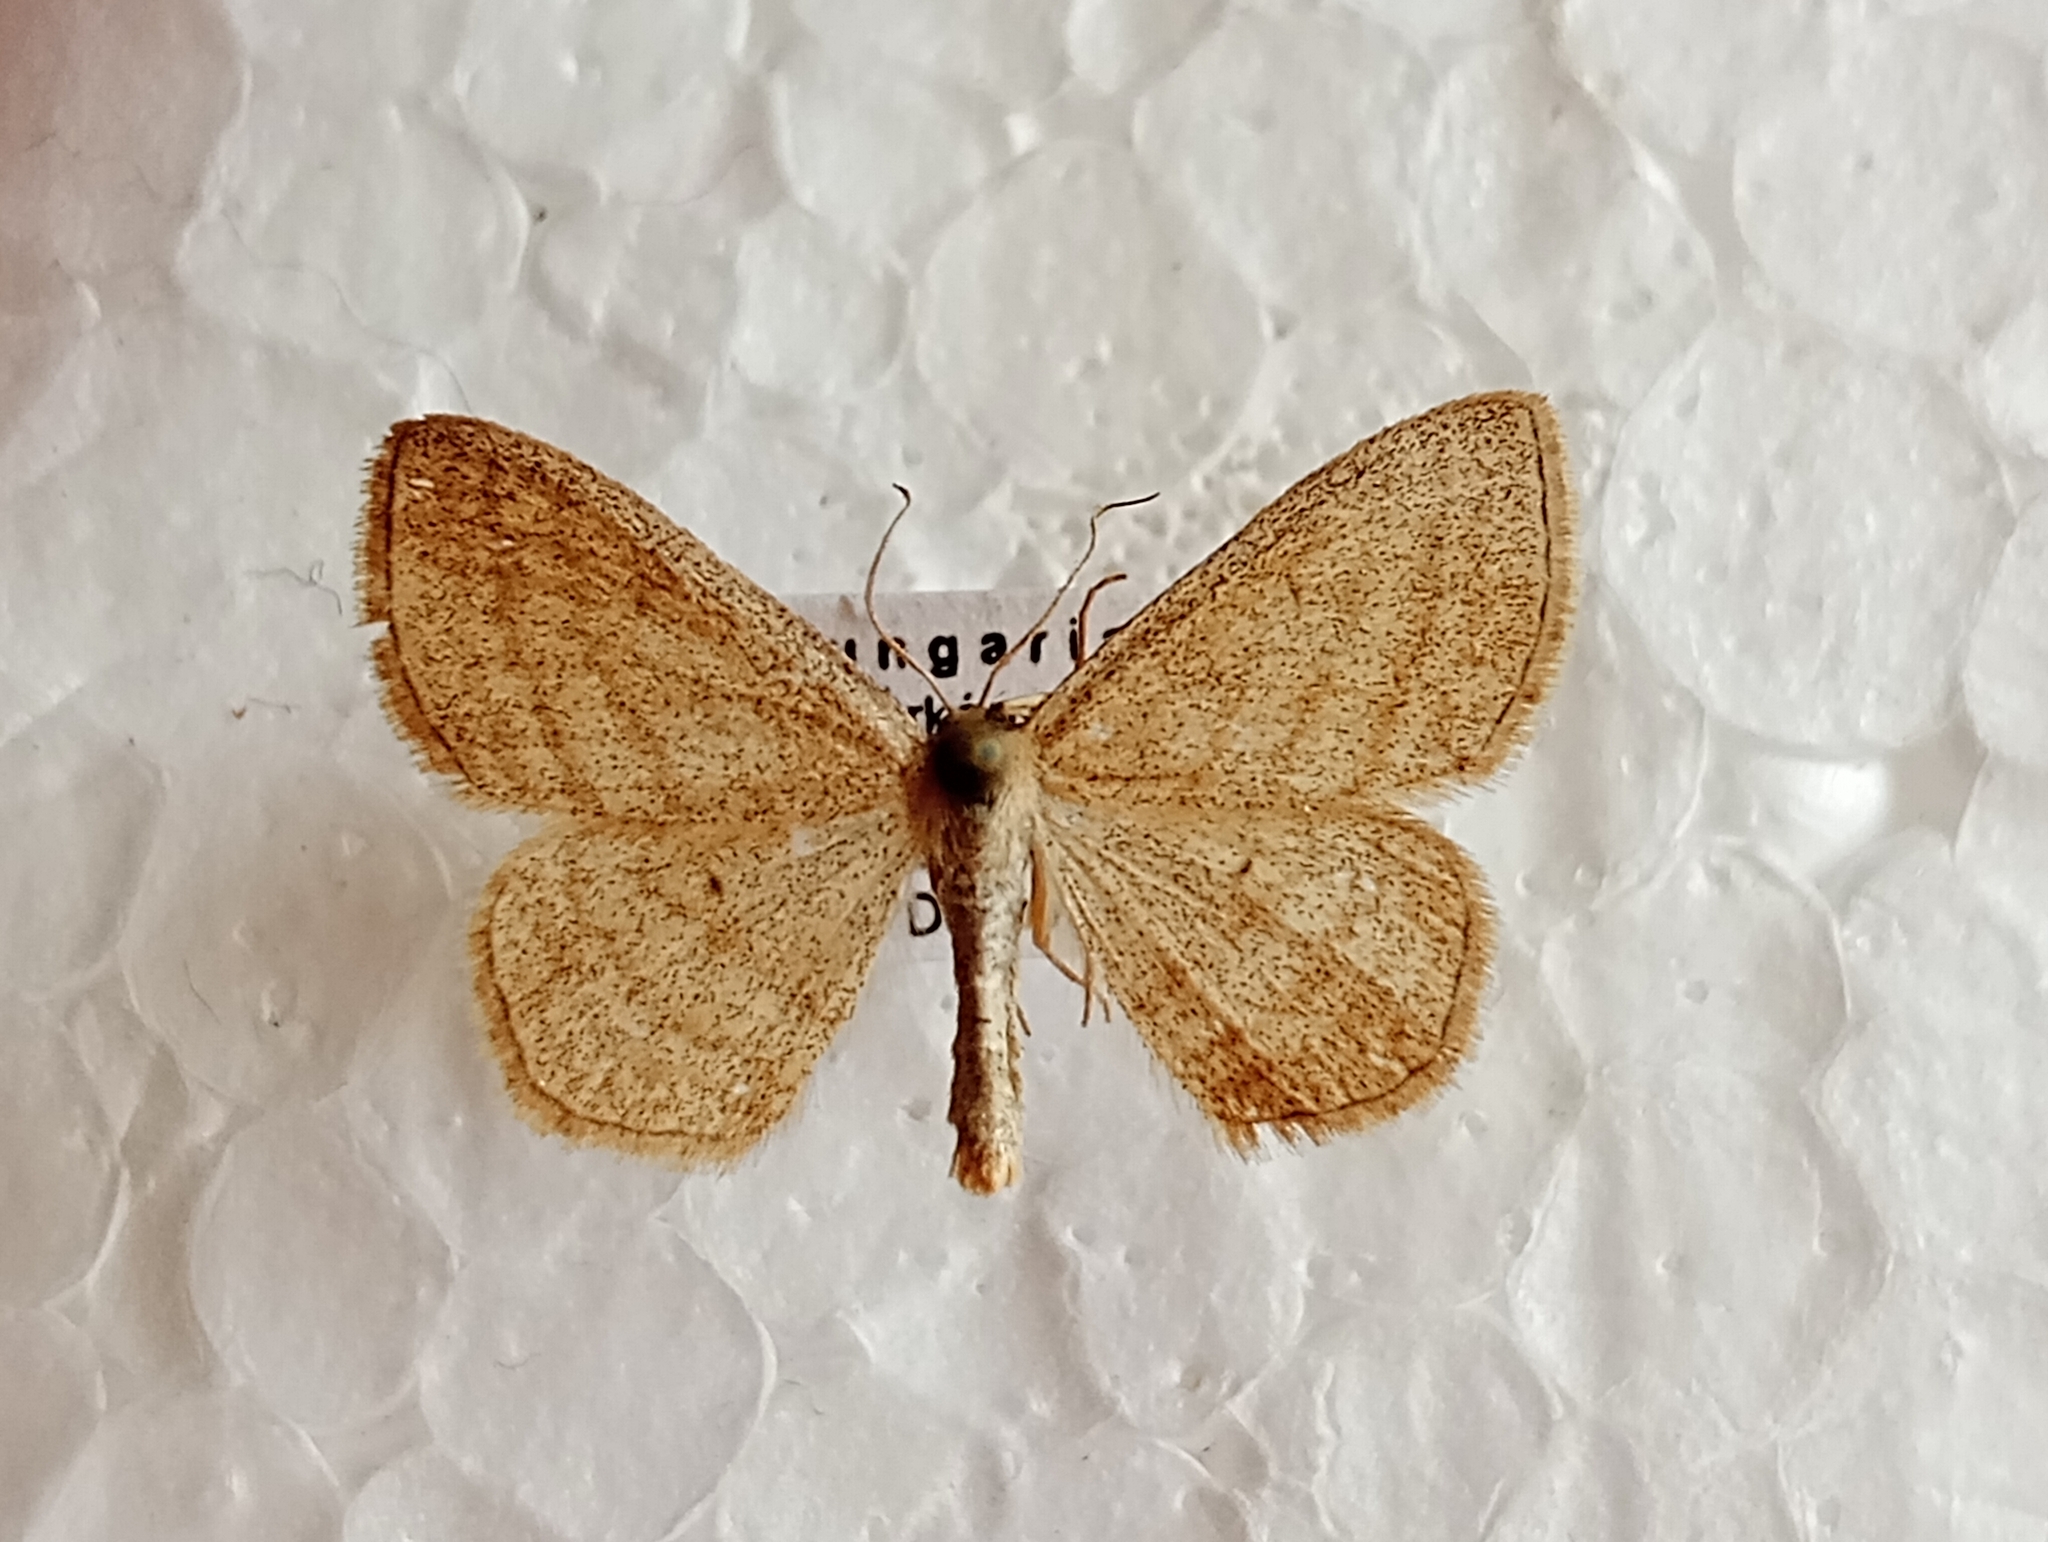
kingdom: Animalia
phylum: Arthropoda
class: Insecta
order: Lepidoptera
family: Geometridae
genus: Scopula
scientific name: Scopula virgulata
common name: Streaked wave
